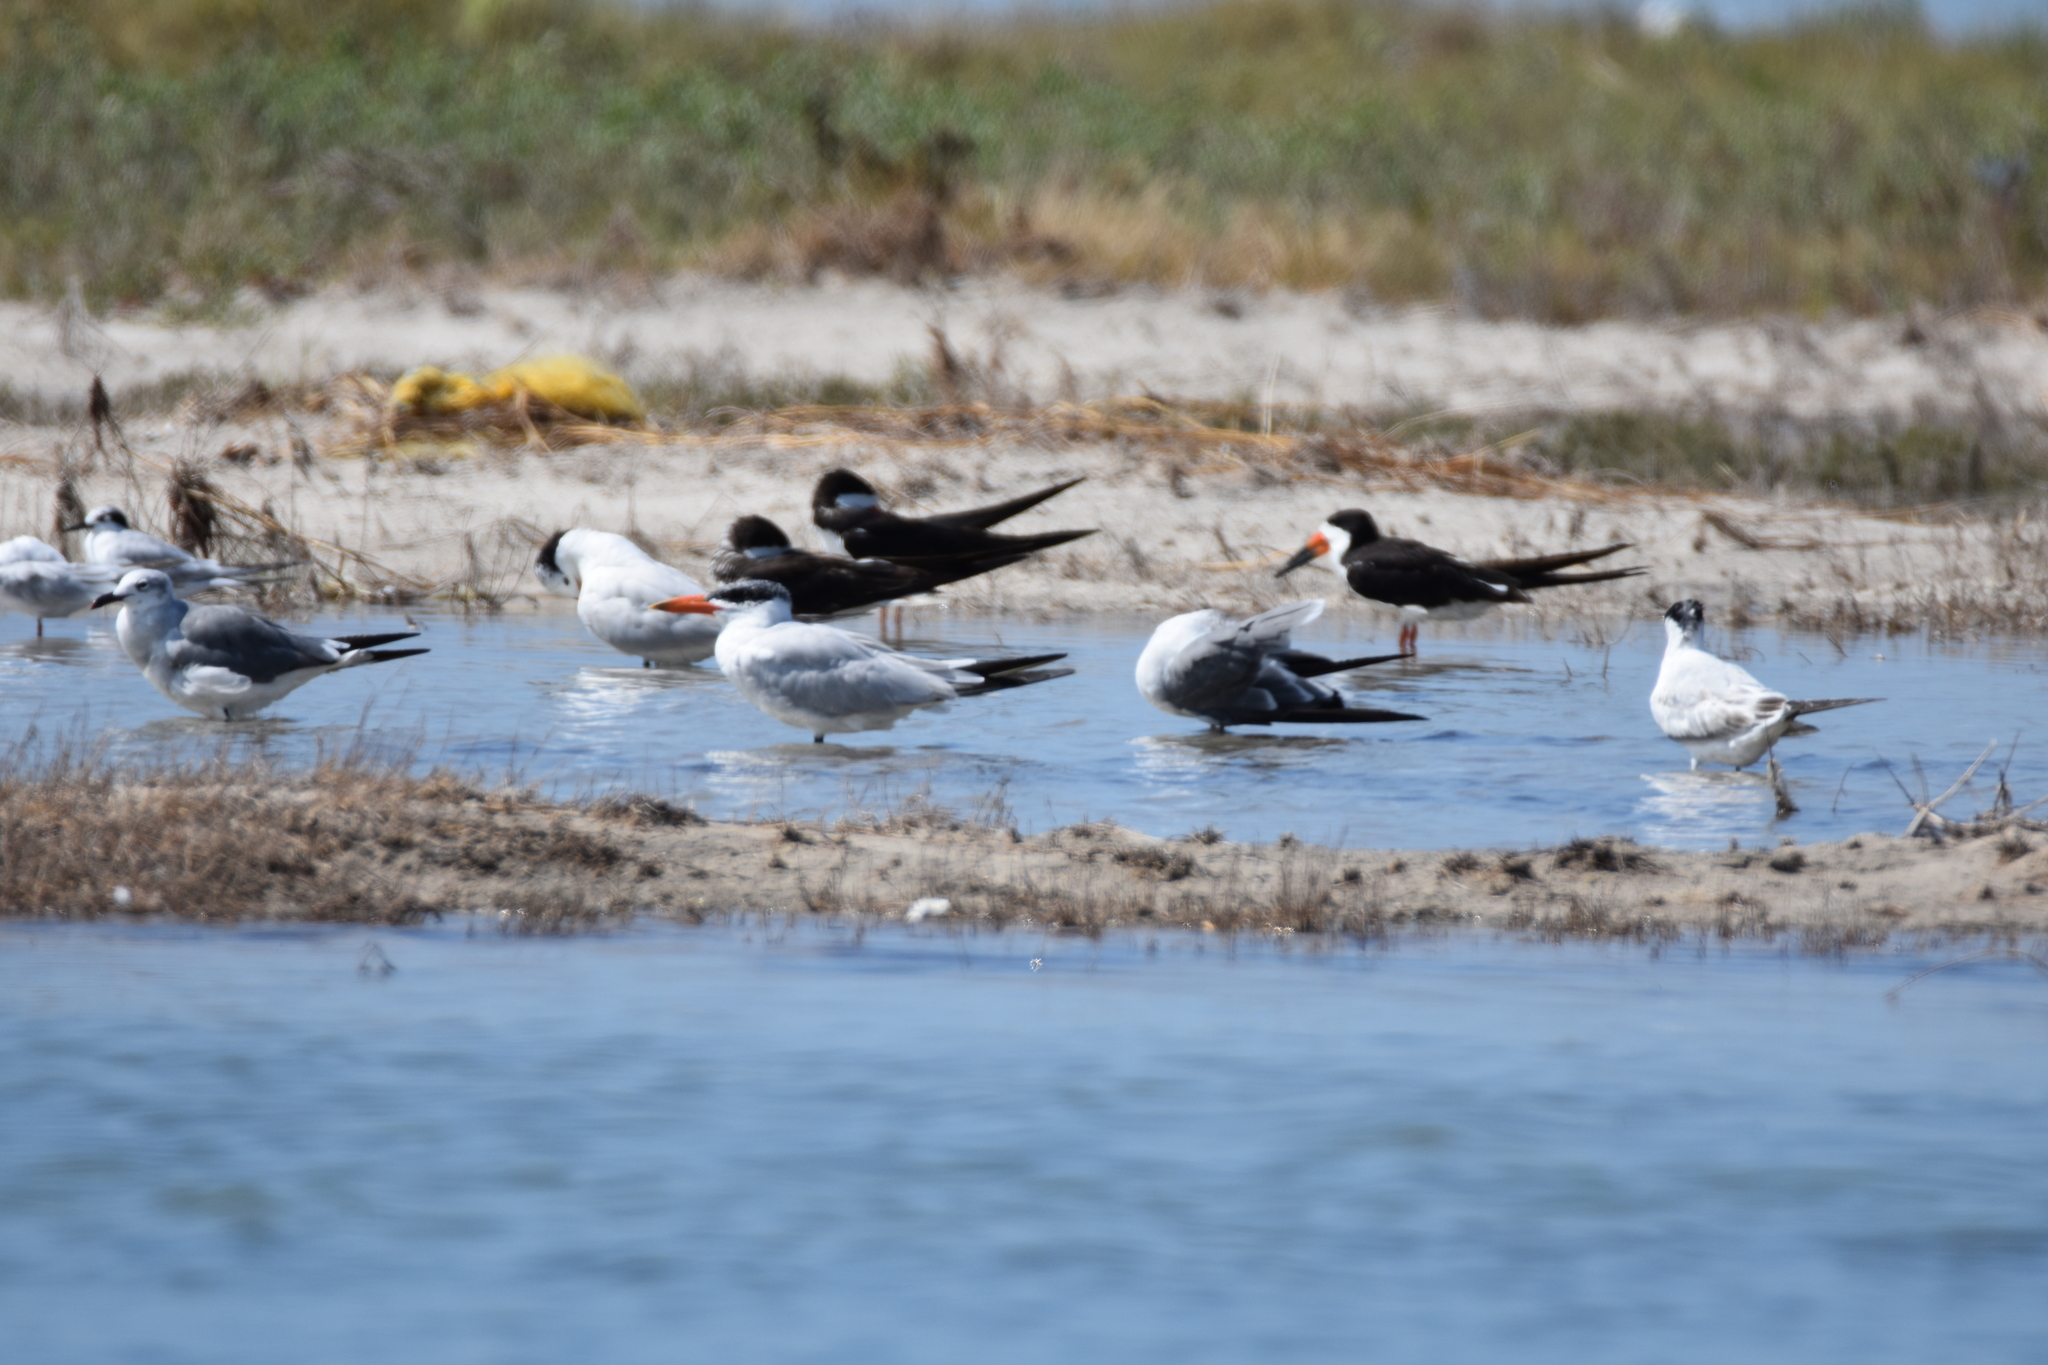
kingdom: Animalia
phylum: Chordata
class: Aves
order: Charadriiformes
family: Laridae
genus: Leucophaeus
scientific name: Leucophaeus atricilla
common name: Laughing gull
